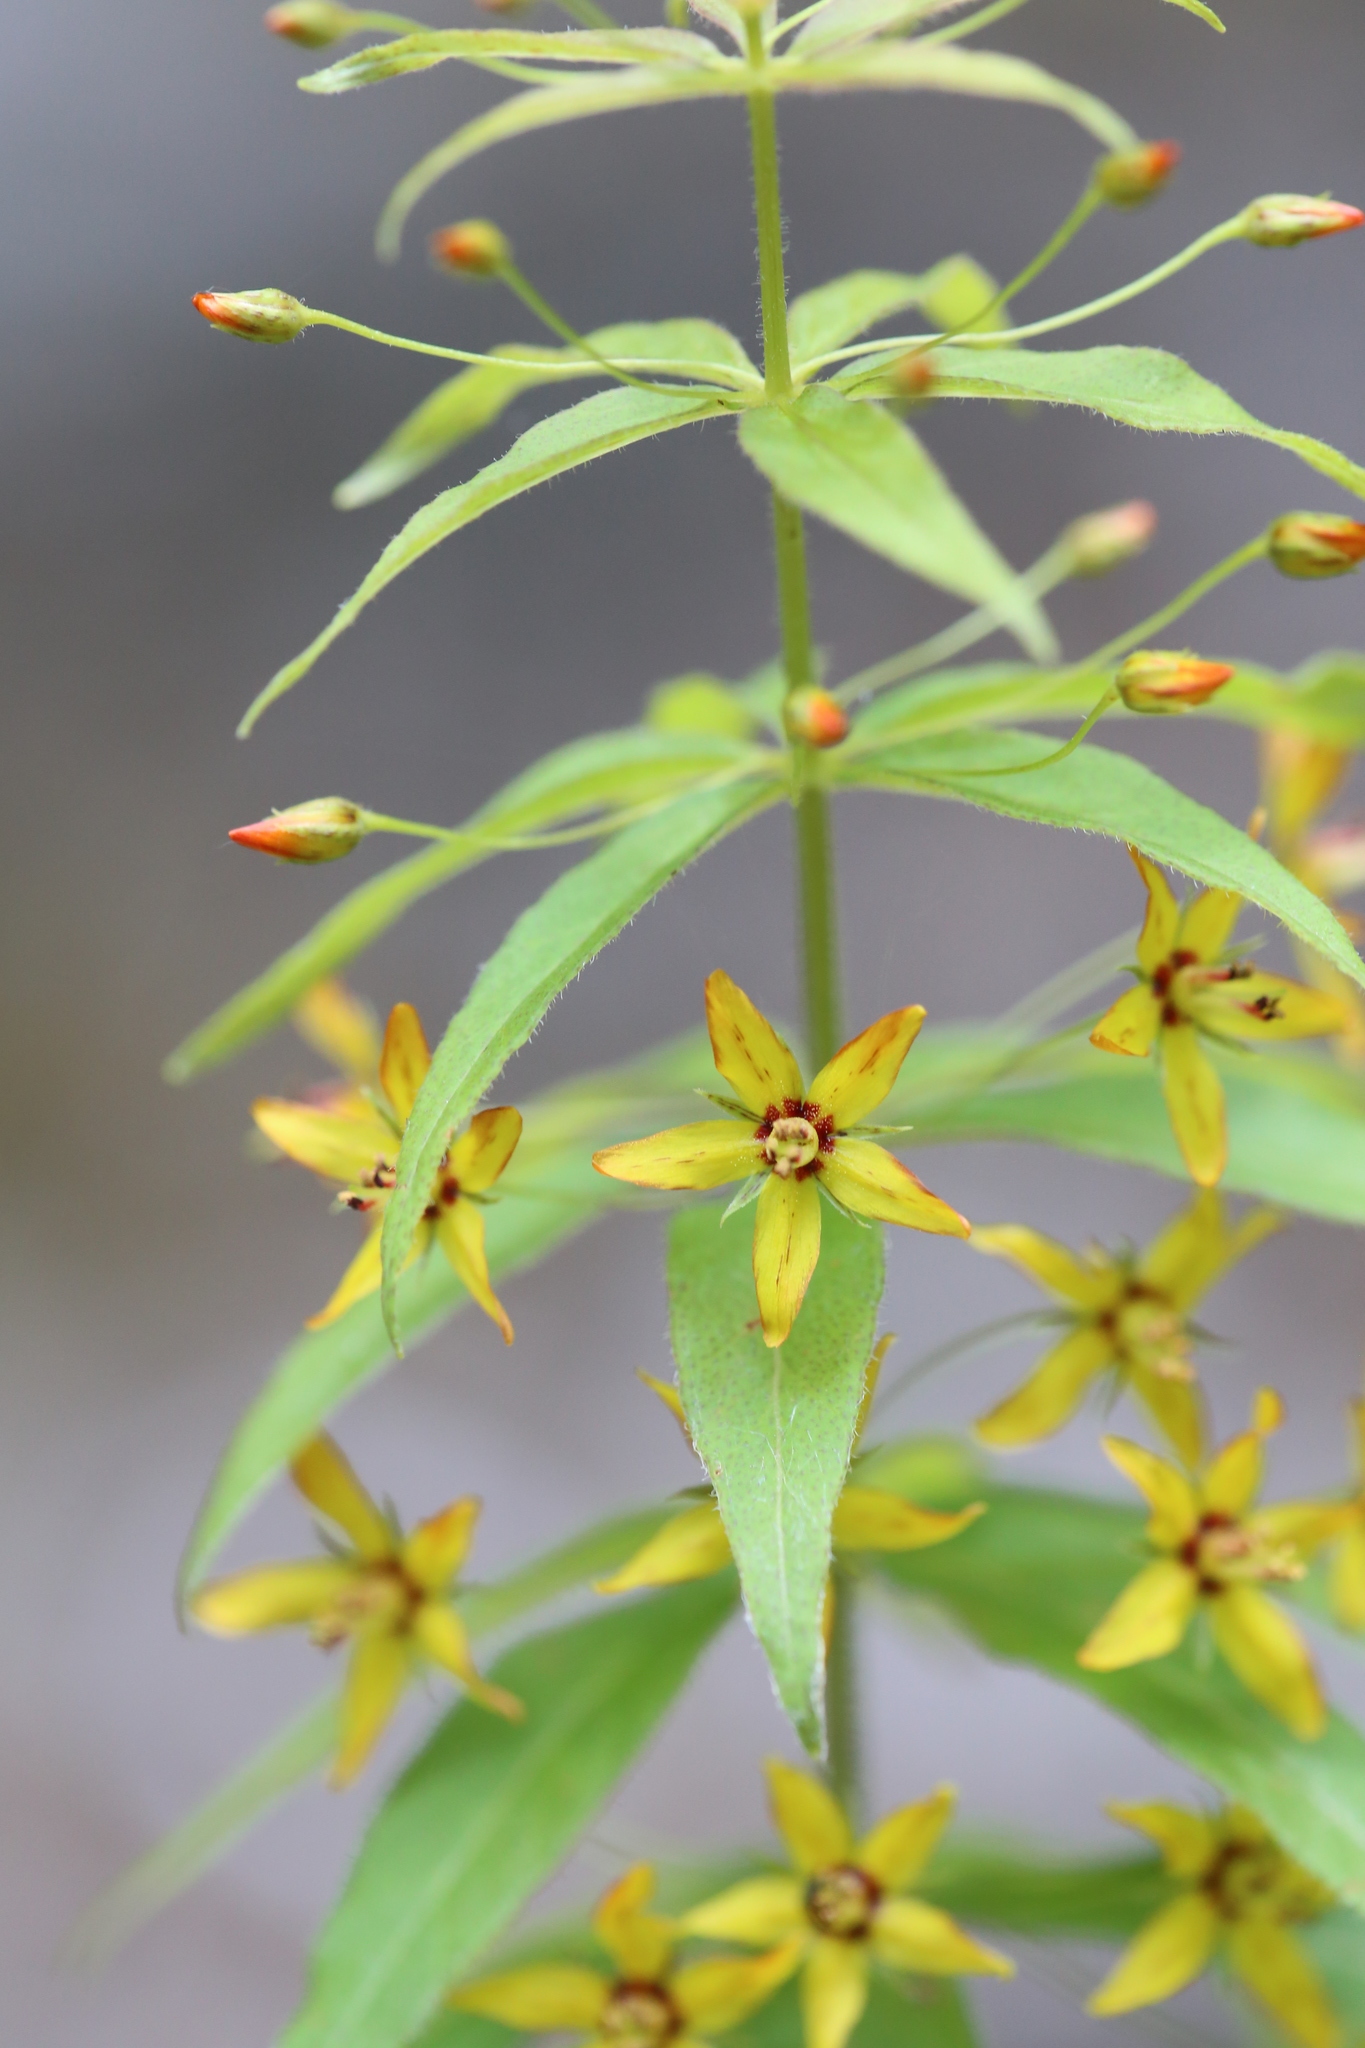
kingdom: Plantae
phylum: Tracheophyta
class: Magnoliopsida
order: Ericales
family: Primulaceae
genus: Lysimachia
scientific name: Lysimachia quadrifolia
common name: Whorled loosestrife
